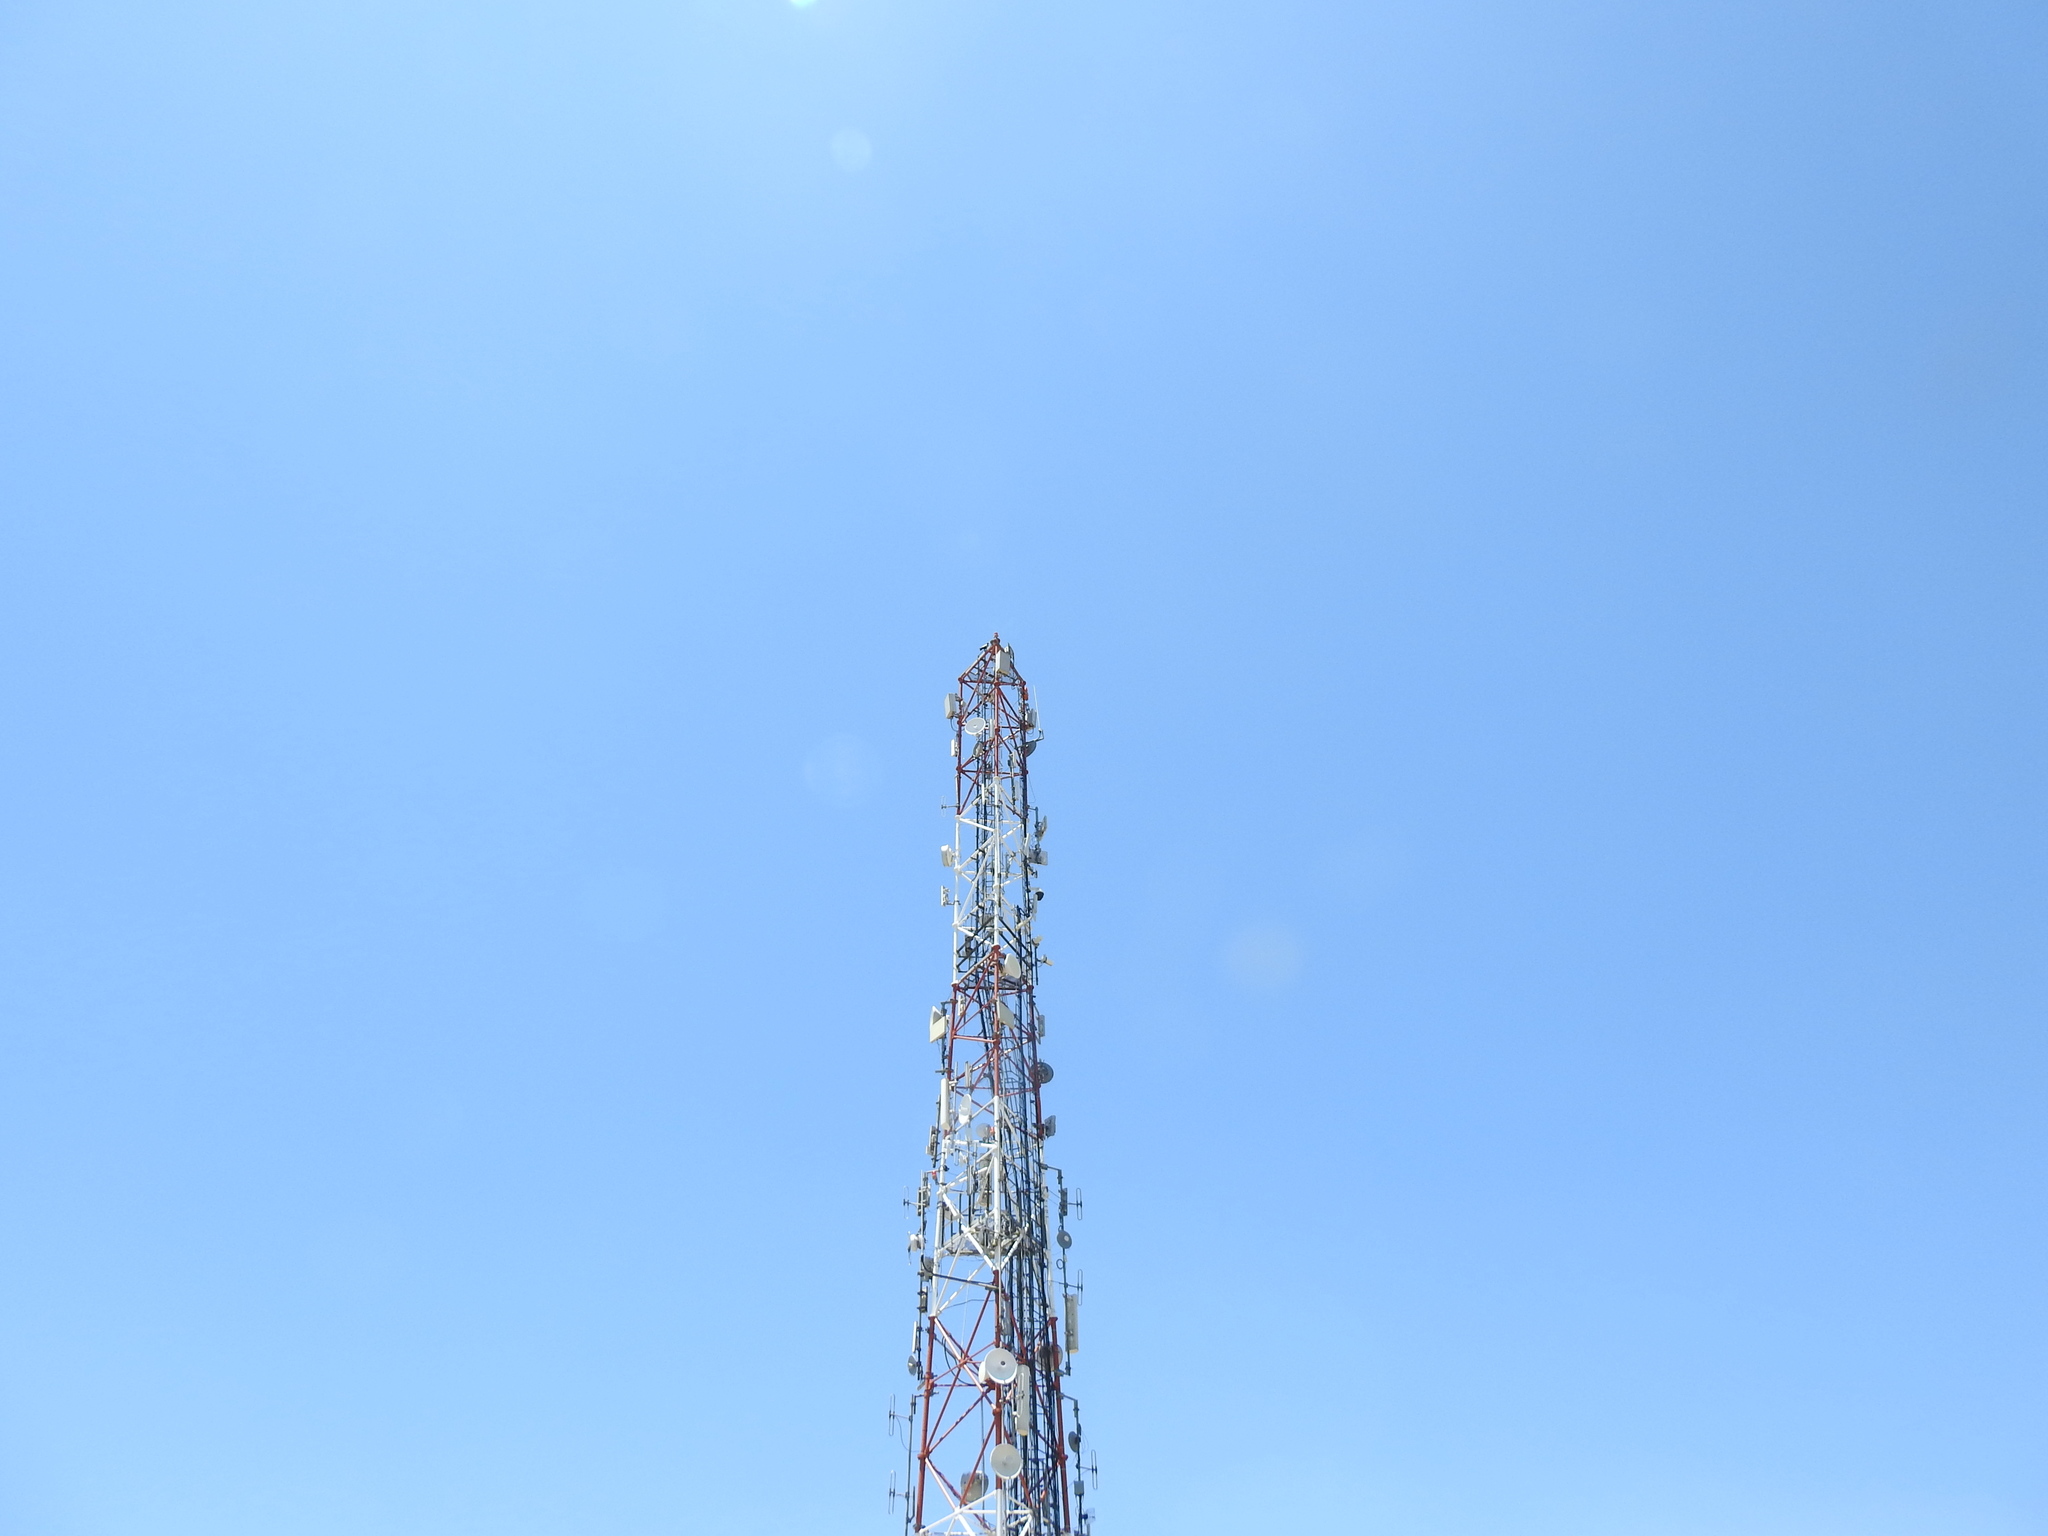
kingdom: Animalia
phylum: Chordata
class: Aves
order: Passeriformes
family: Corvidae
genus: Corvus
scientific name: Corvus albus
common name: Pied crow
